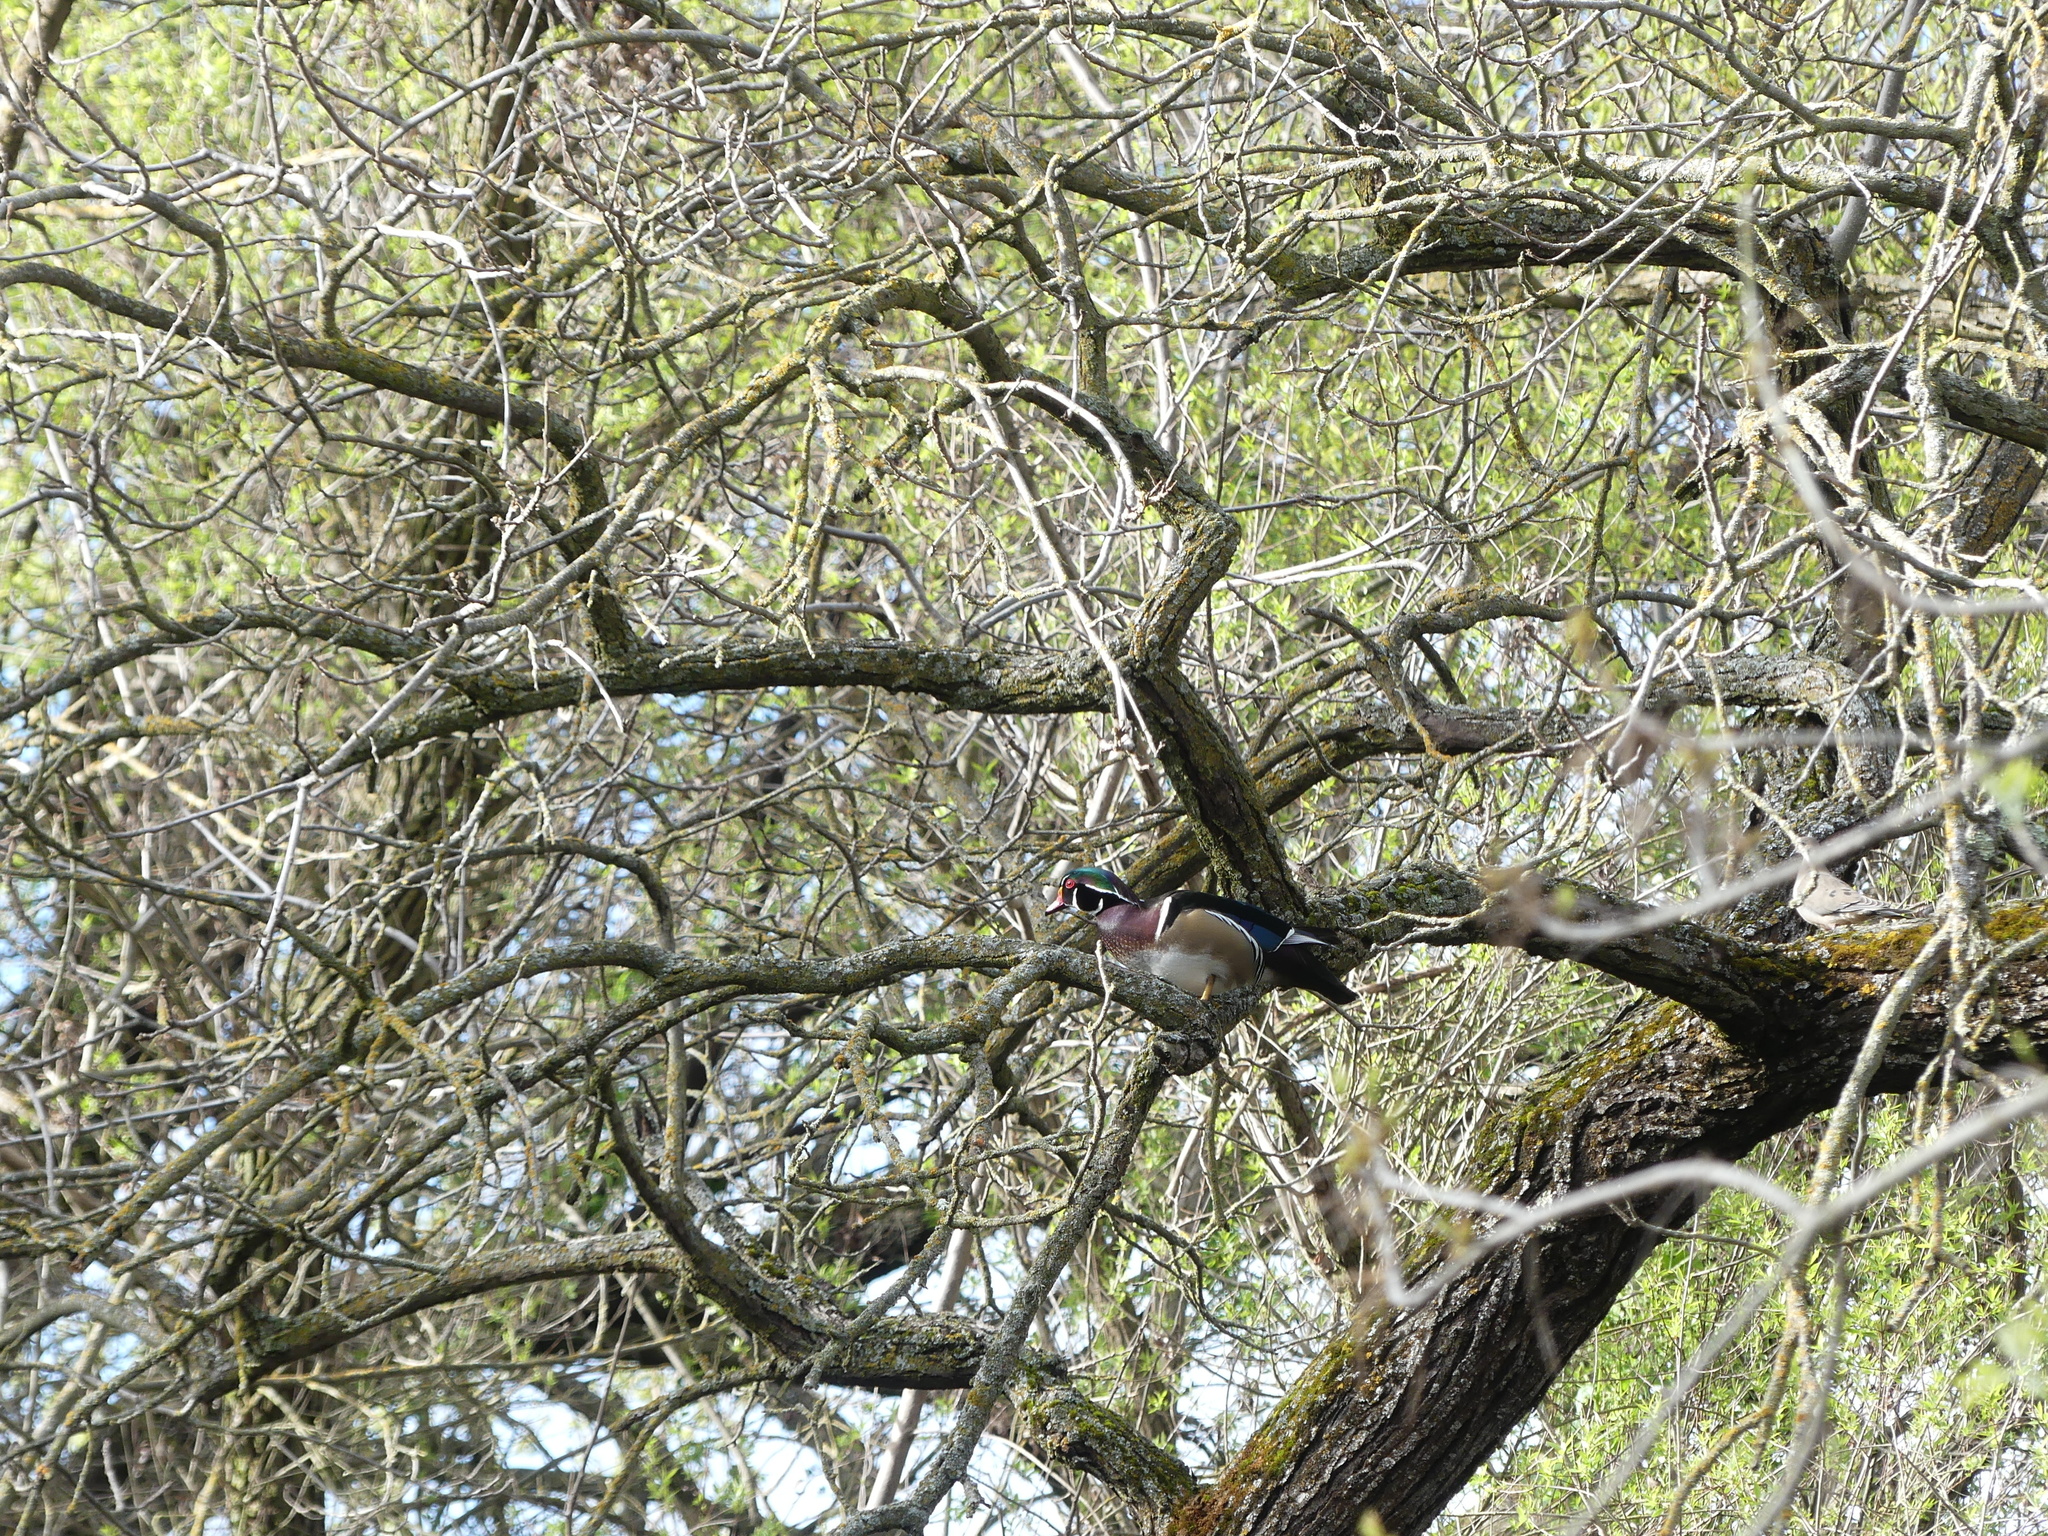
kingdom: Animalia
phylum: Chordata
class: Aves
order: Anseriformes
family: Anatidae
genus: Aix
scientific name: Aix sponsa
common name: Wood duck
